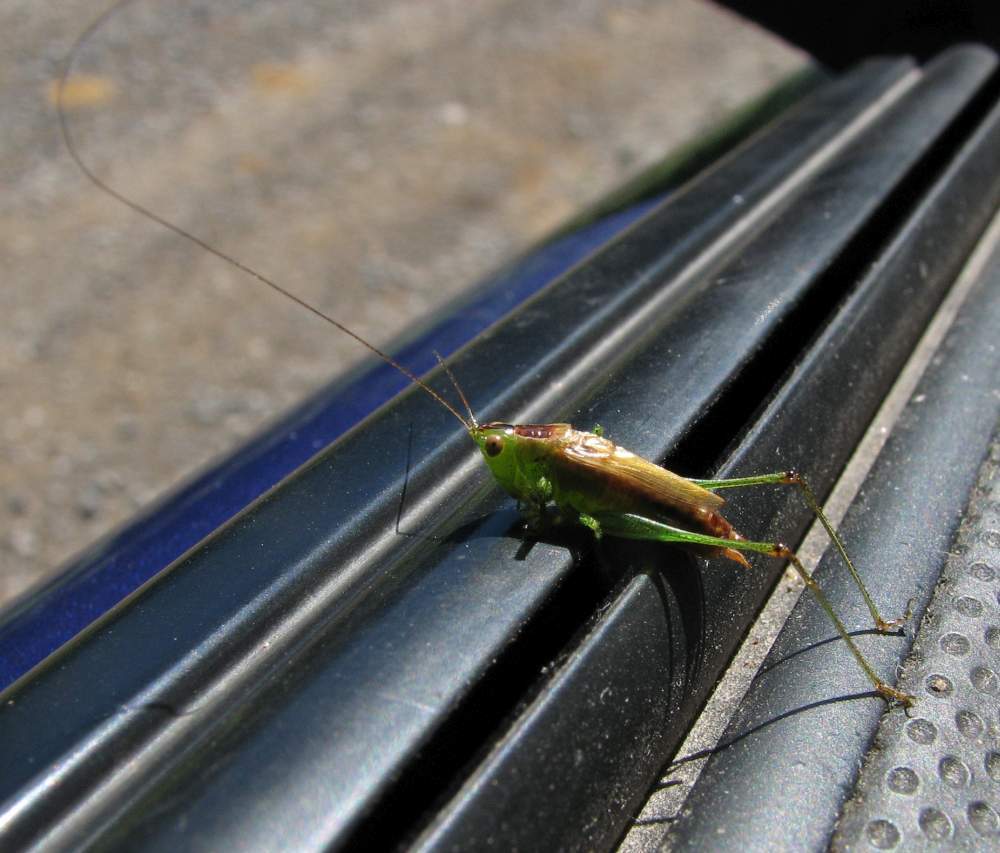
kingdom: Animalia
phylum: Arthropoda
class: Insecta
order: Orthoptera
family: Tettigoniidae
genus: Conocephalus
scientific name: Conocephalus brevipennis
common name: Short-winged meadow katydid
